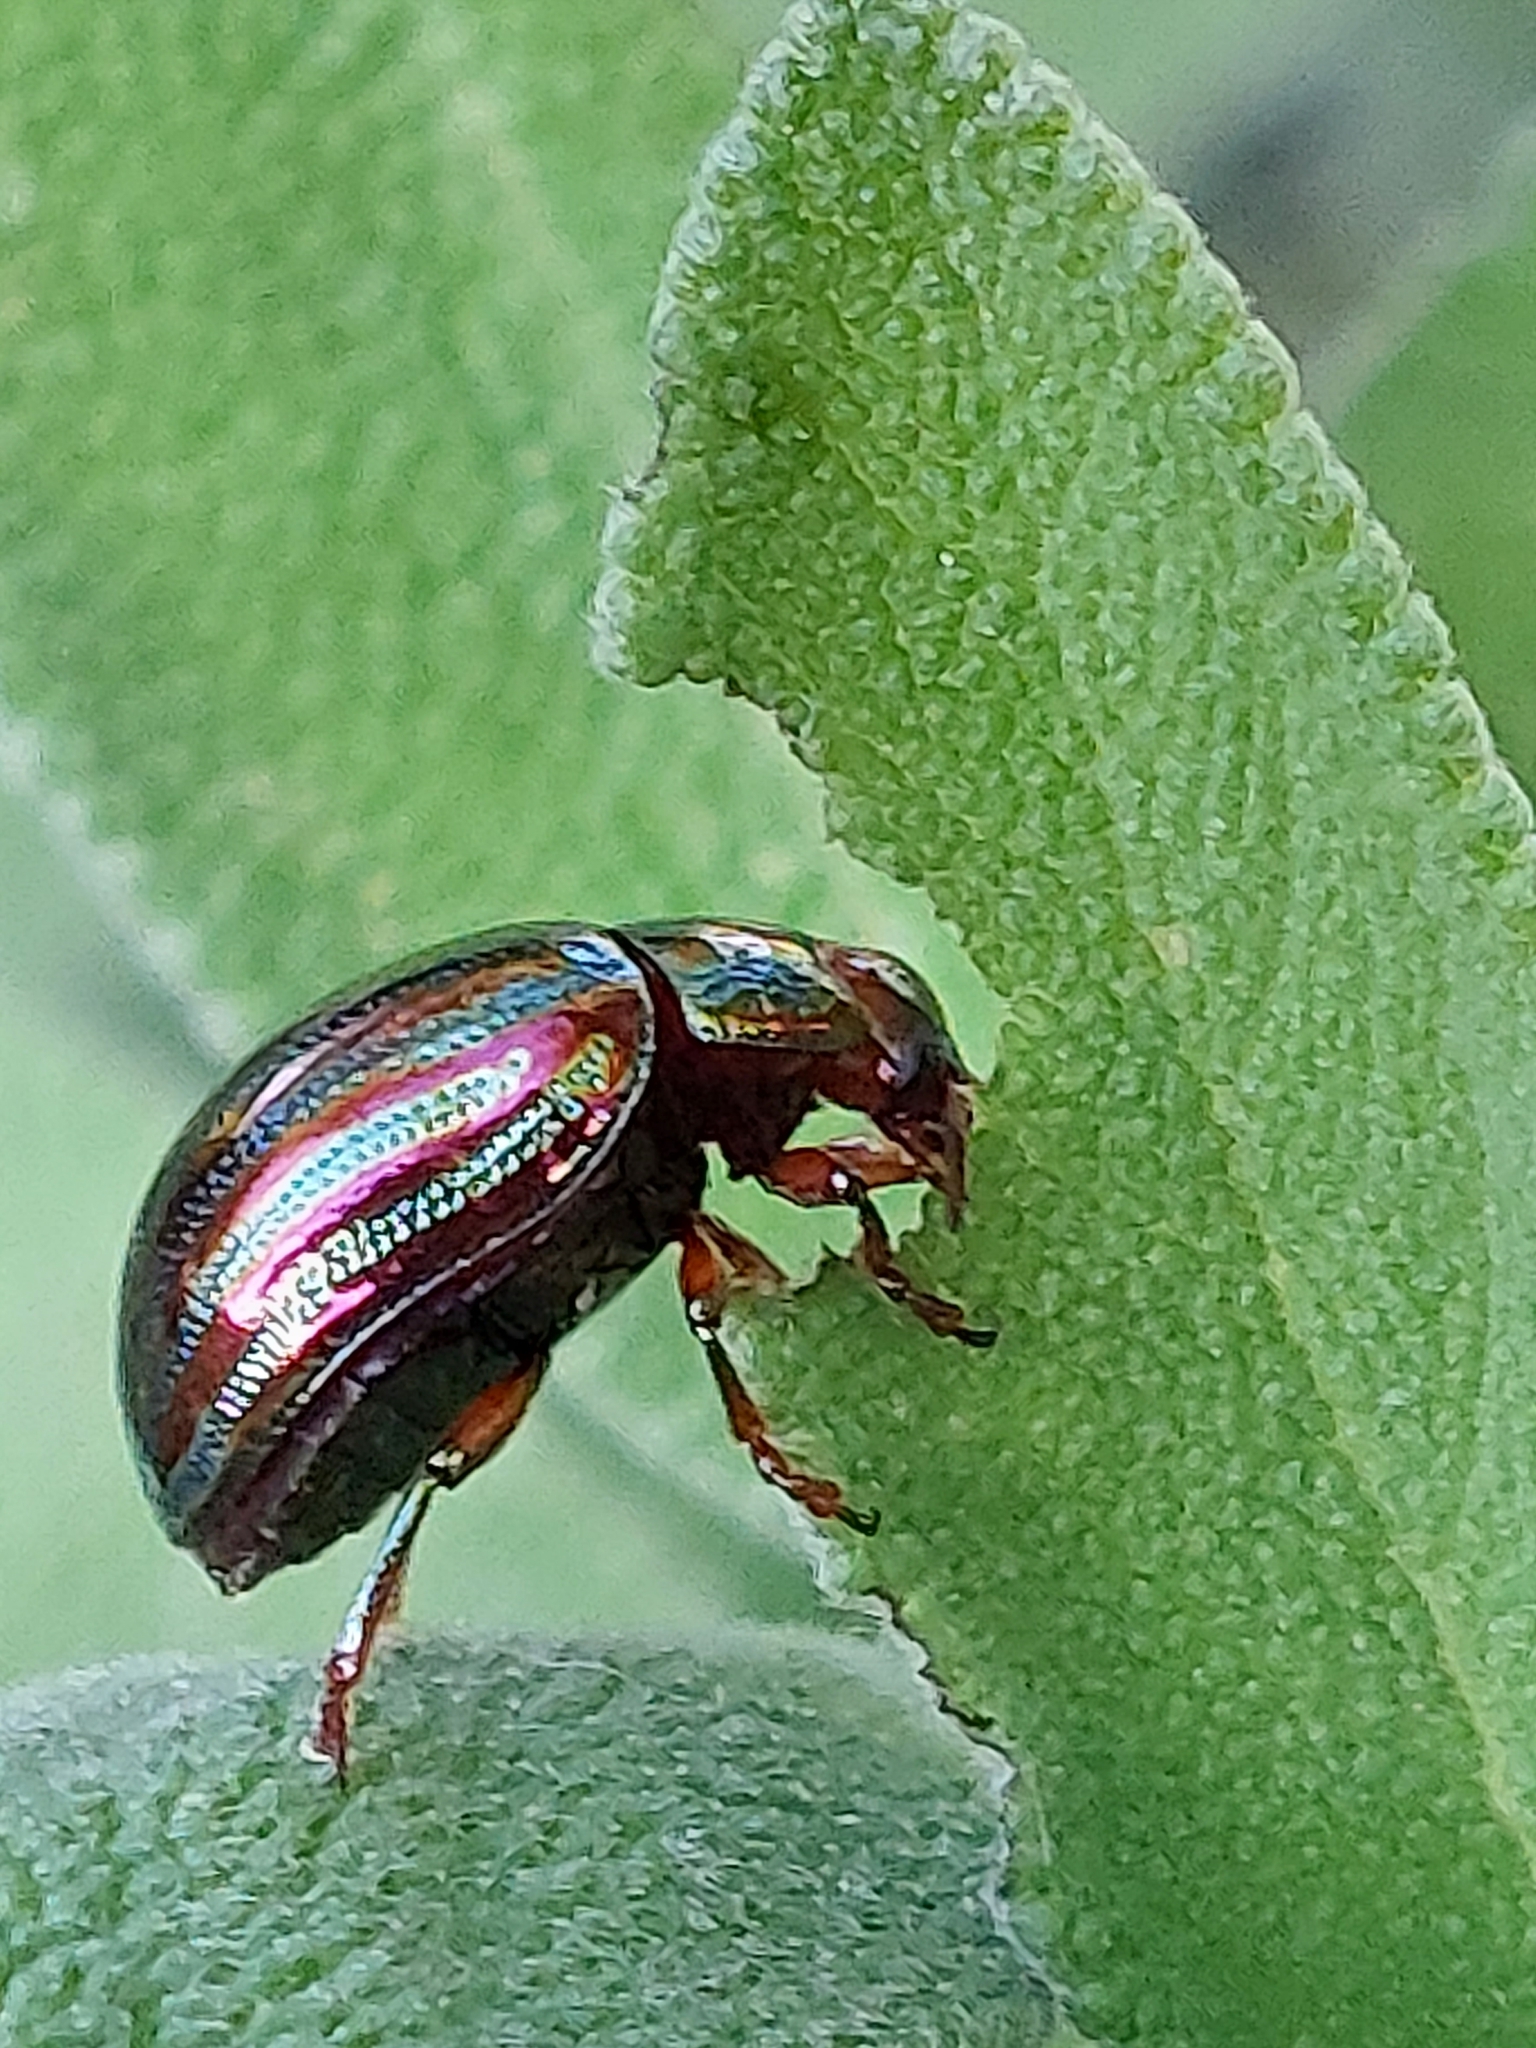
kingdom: Animalia
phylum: Arthropoda
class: Insecta
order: Coleoptera
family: Chrysomelidae
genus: Chrysolina
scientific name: Chrysolina americana
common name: Rosemary beetle
